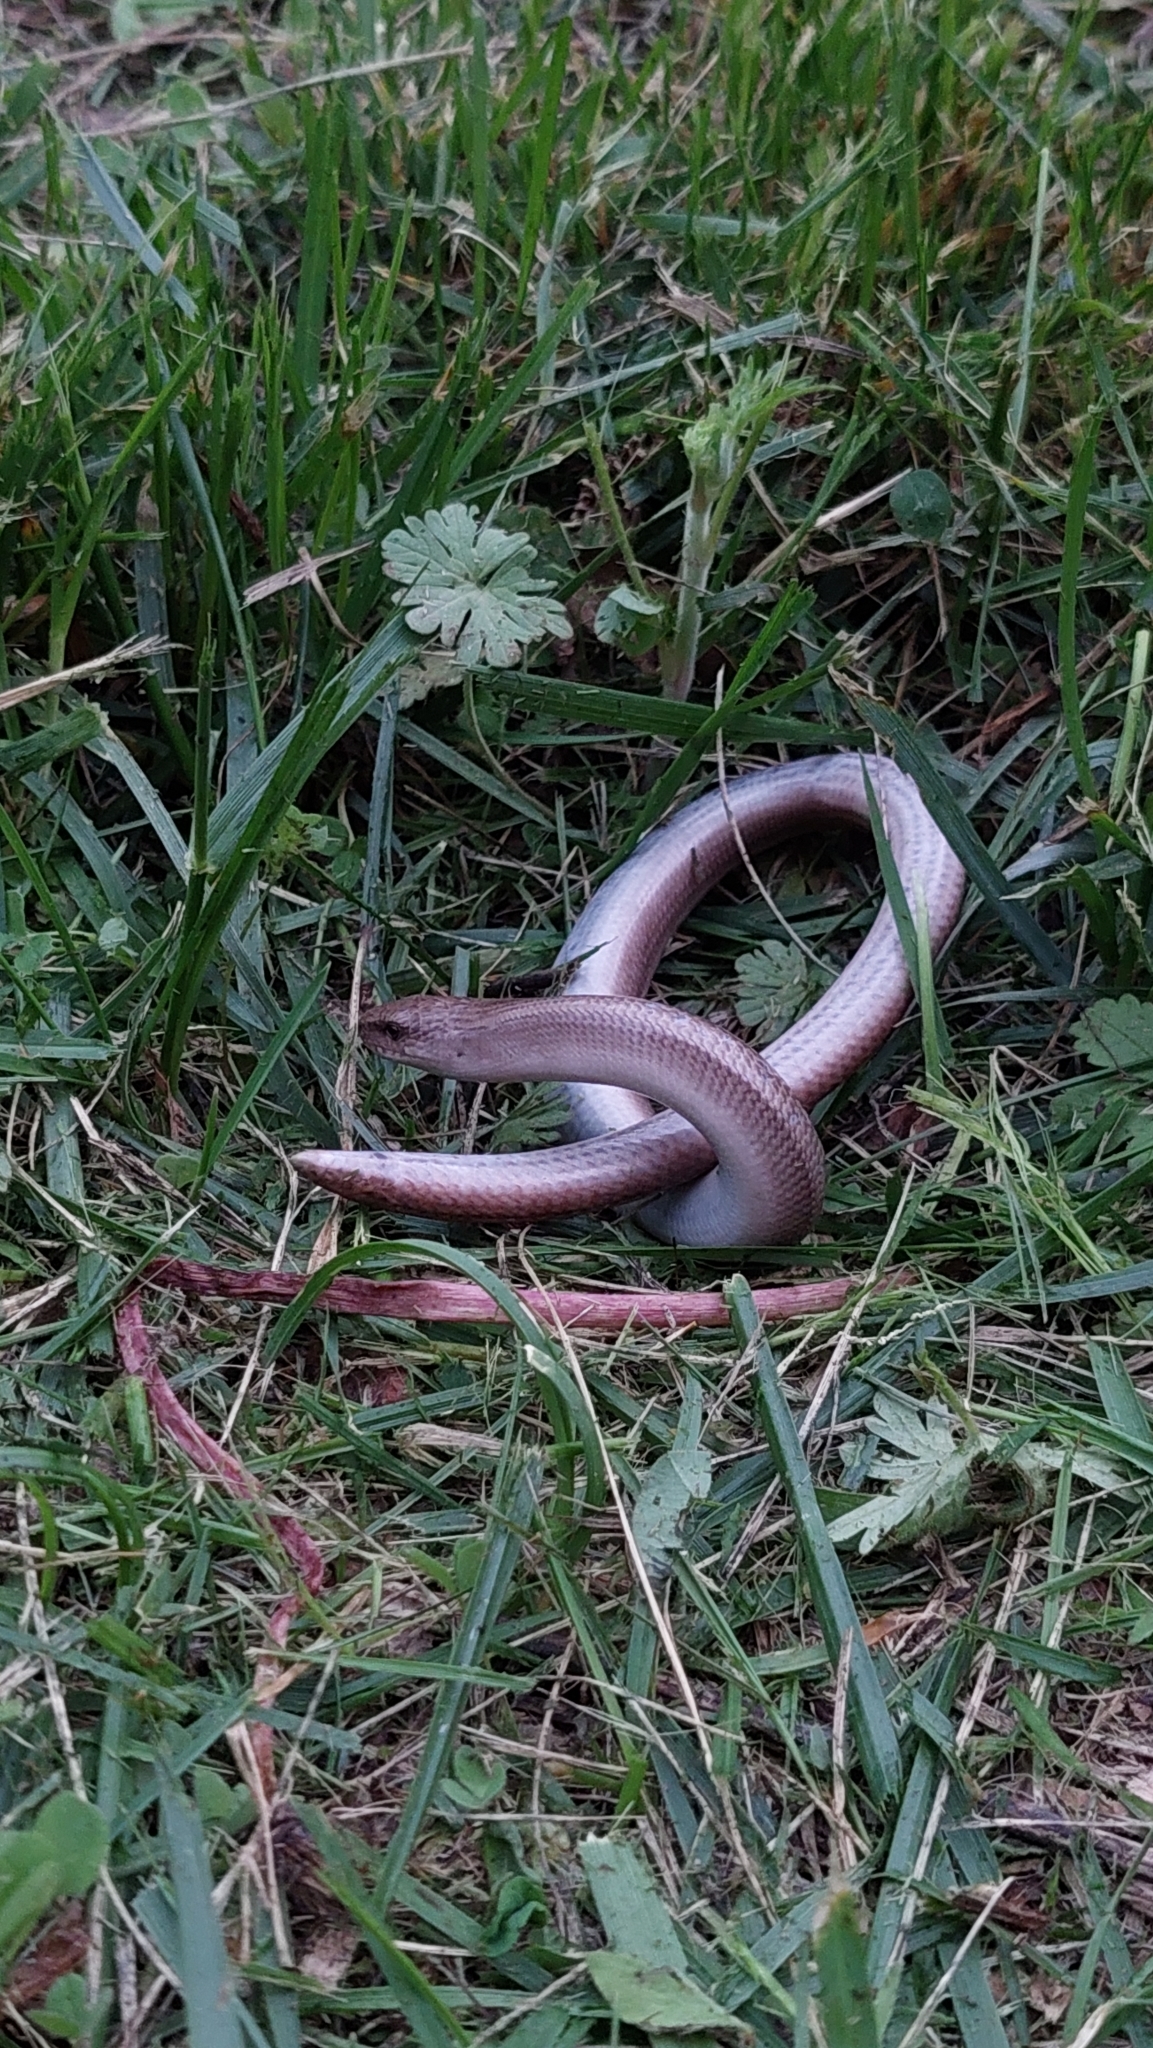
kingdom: Animalia
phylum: Chordata
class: Squamata
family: Anguidae
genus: Anguis
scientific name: Anguis colchica
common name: Slow worm
